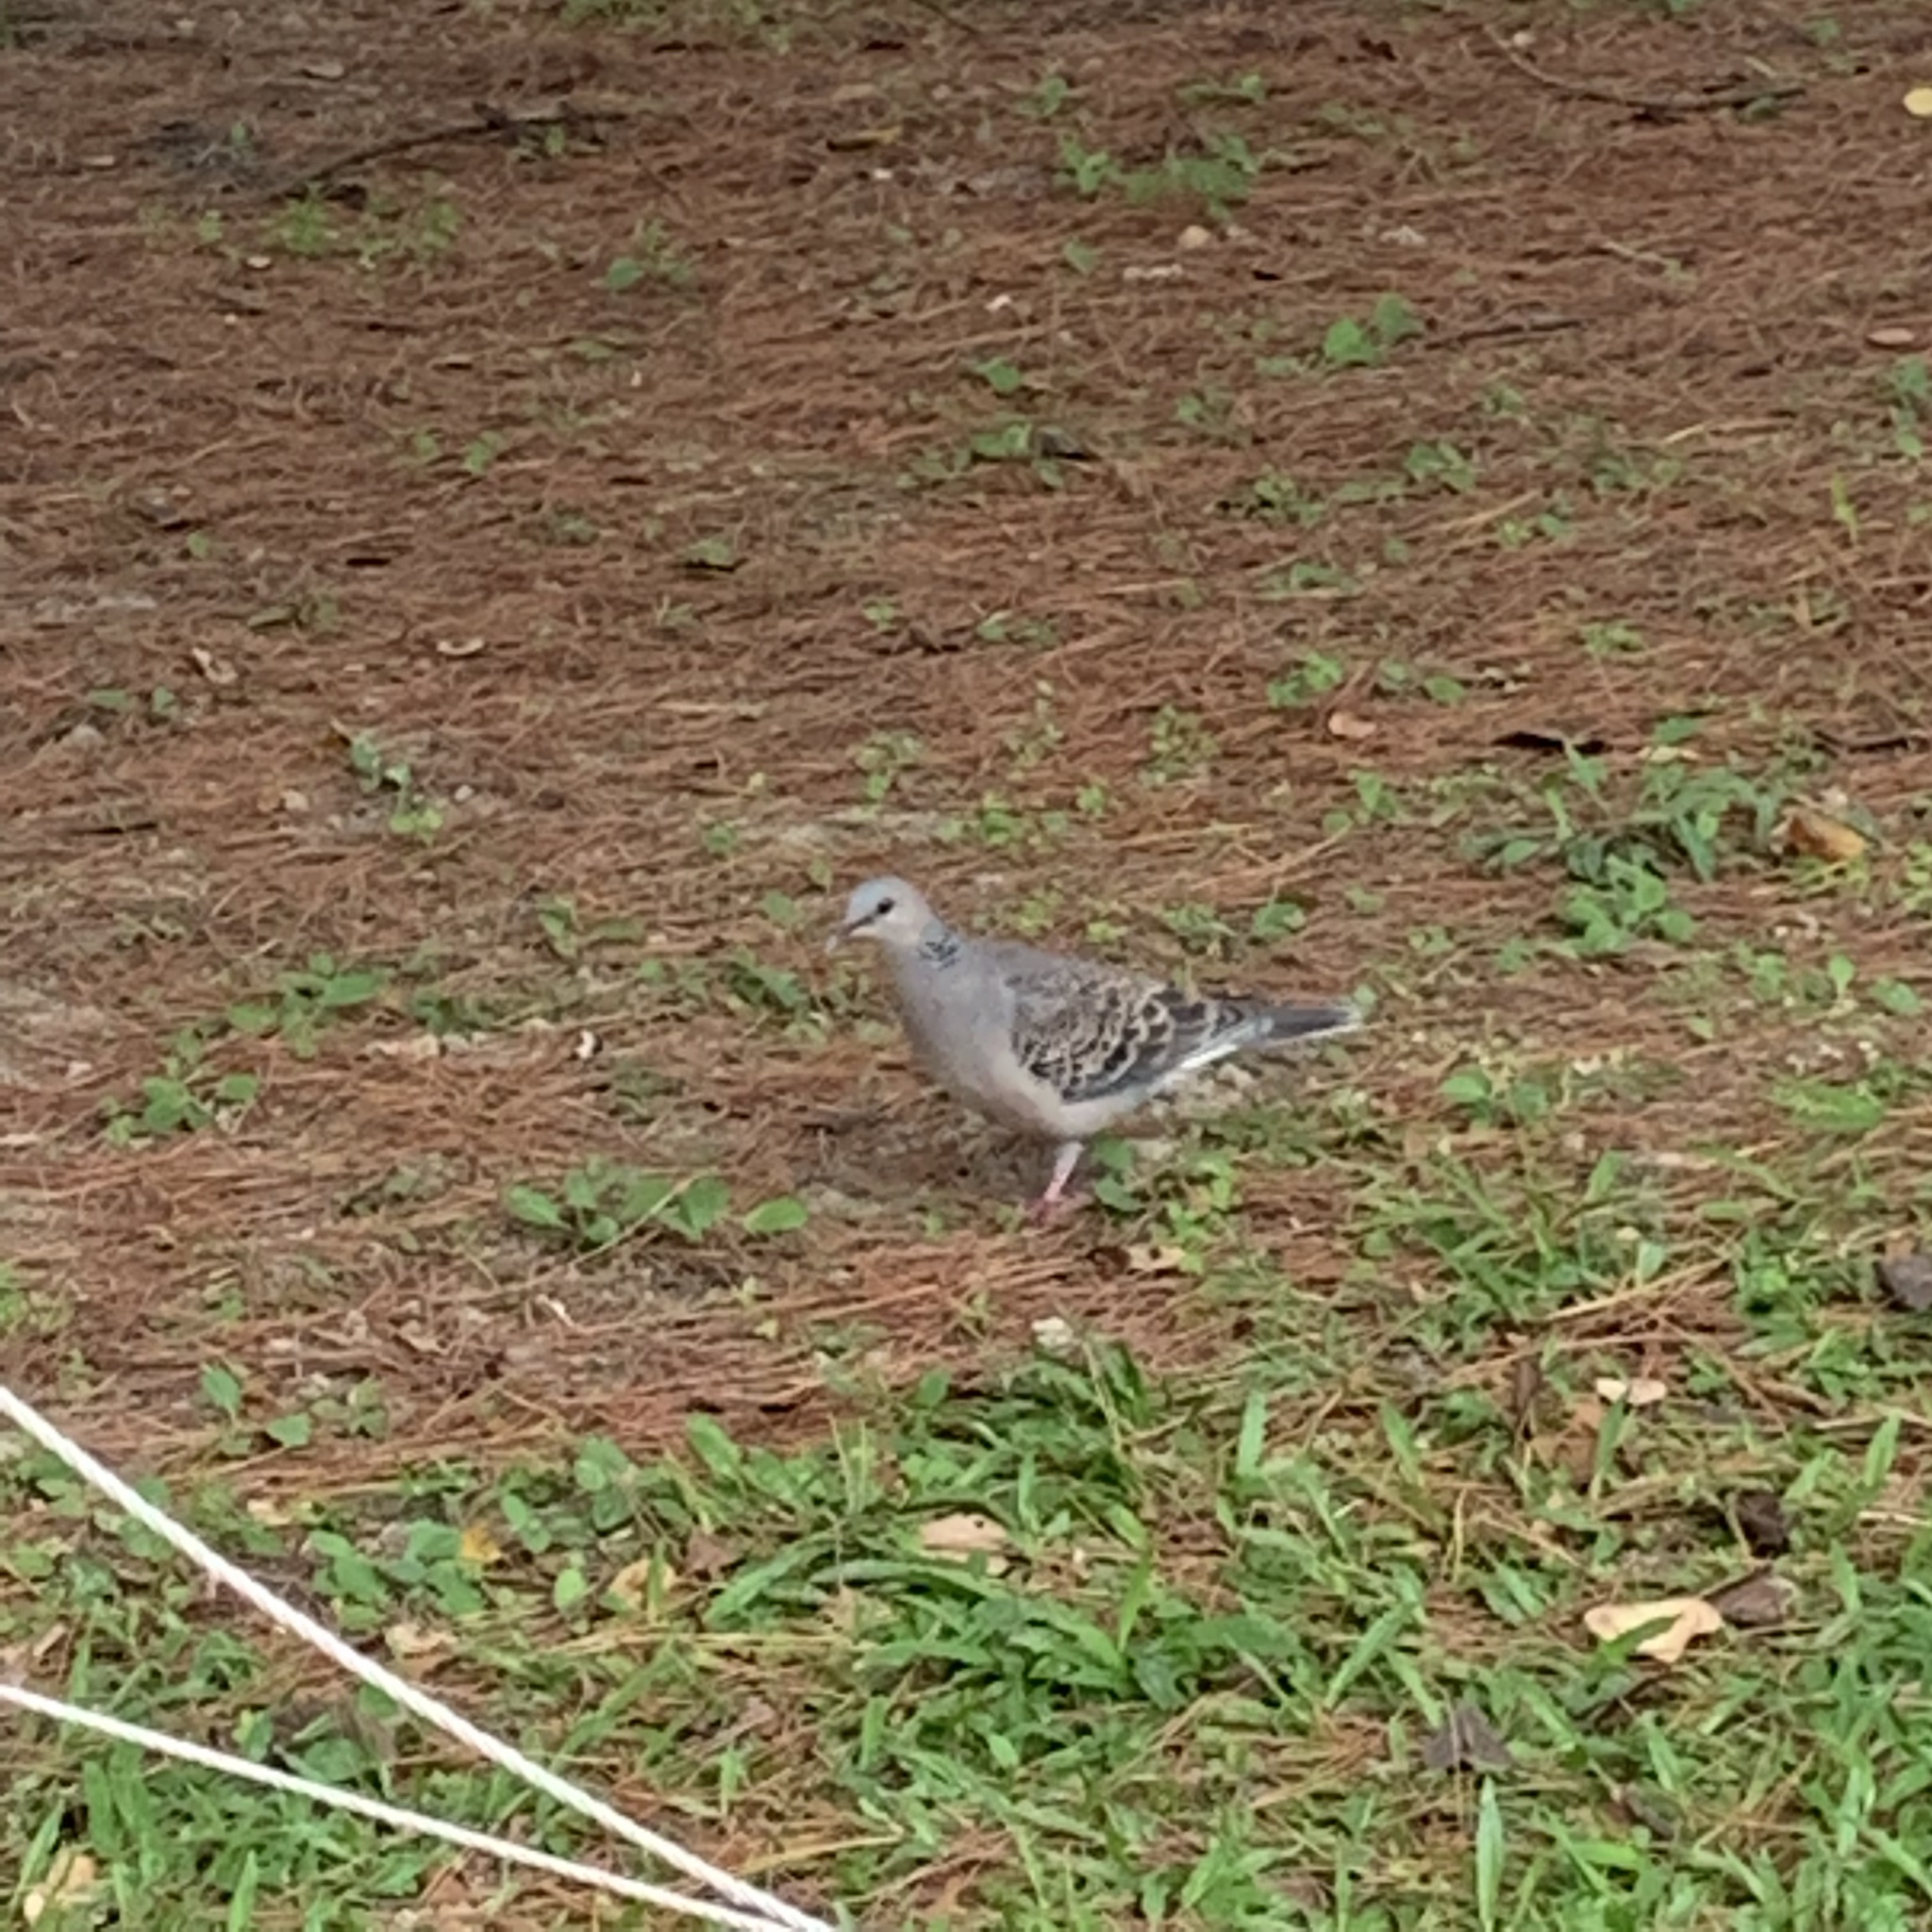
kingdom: Animalia
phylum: Chordata
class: Aves
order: Columbiformes
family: Columbidae
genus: Streptopelia
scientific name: Streptopelia orientalis
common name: Oriental turtle dove
